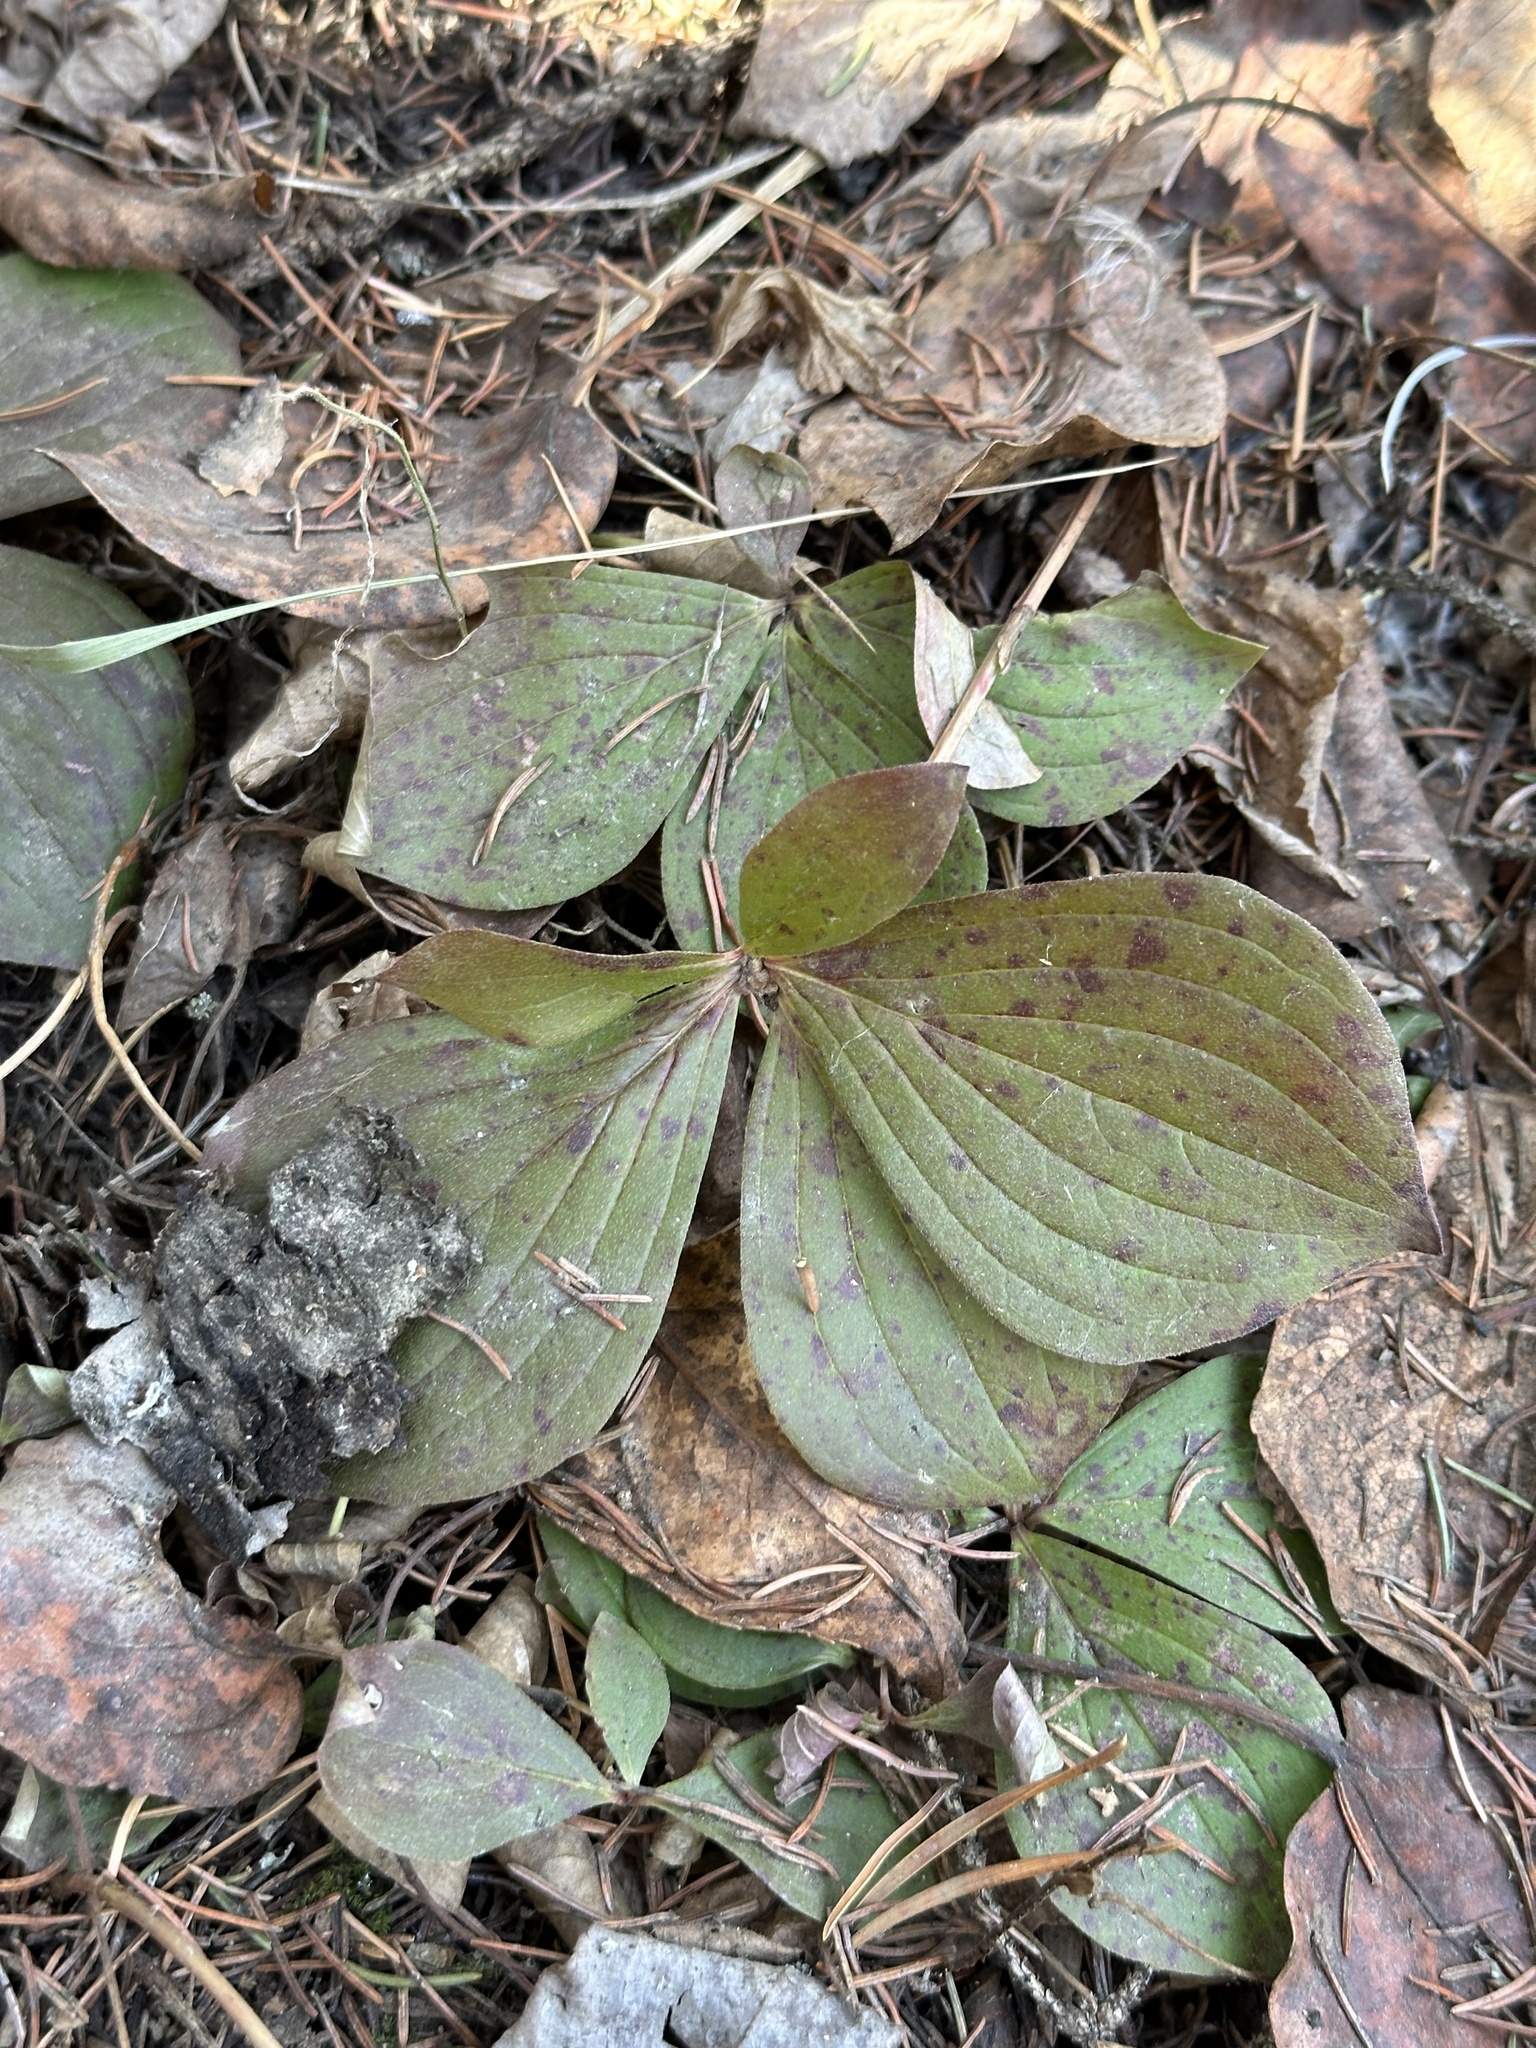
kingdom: Plantae
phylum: Tracheophyta
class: Magnoliopsida
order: Cornales
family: Cornaceae
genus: Cornus
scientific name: Cornus canadensis
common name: Creeping dogwood
